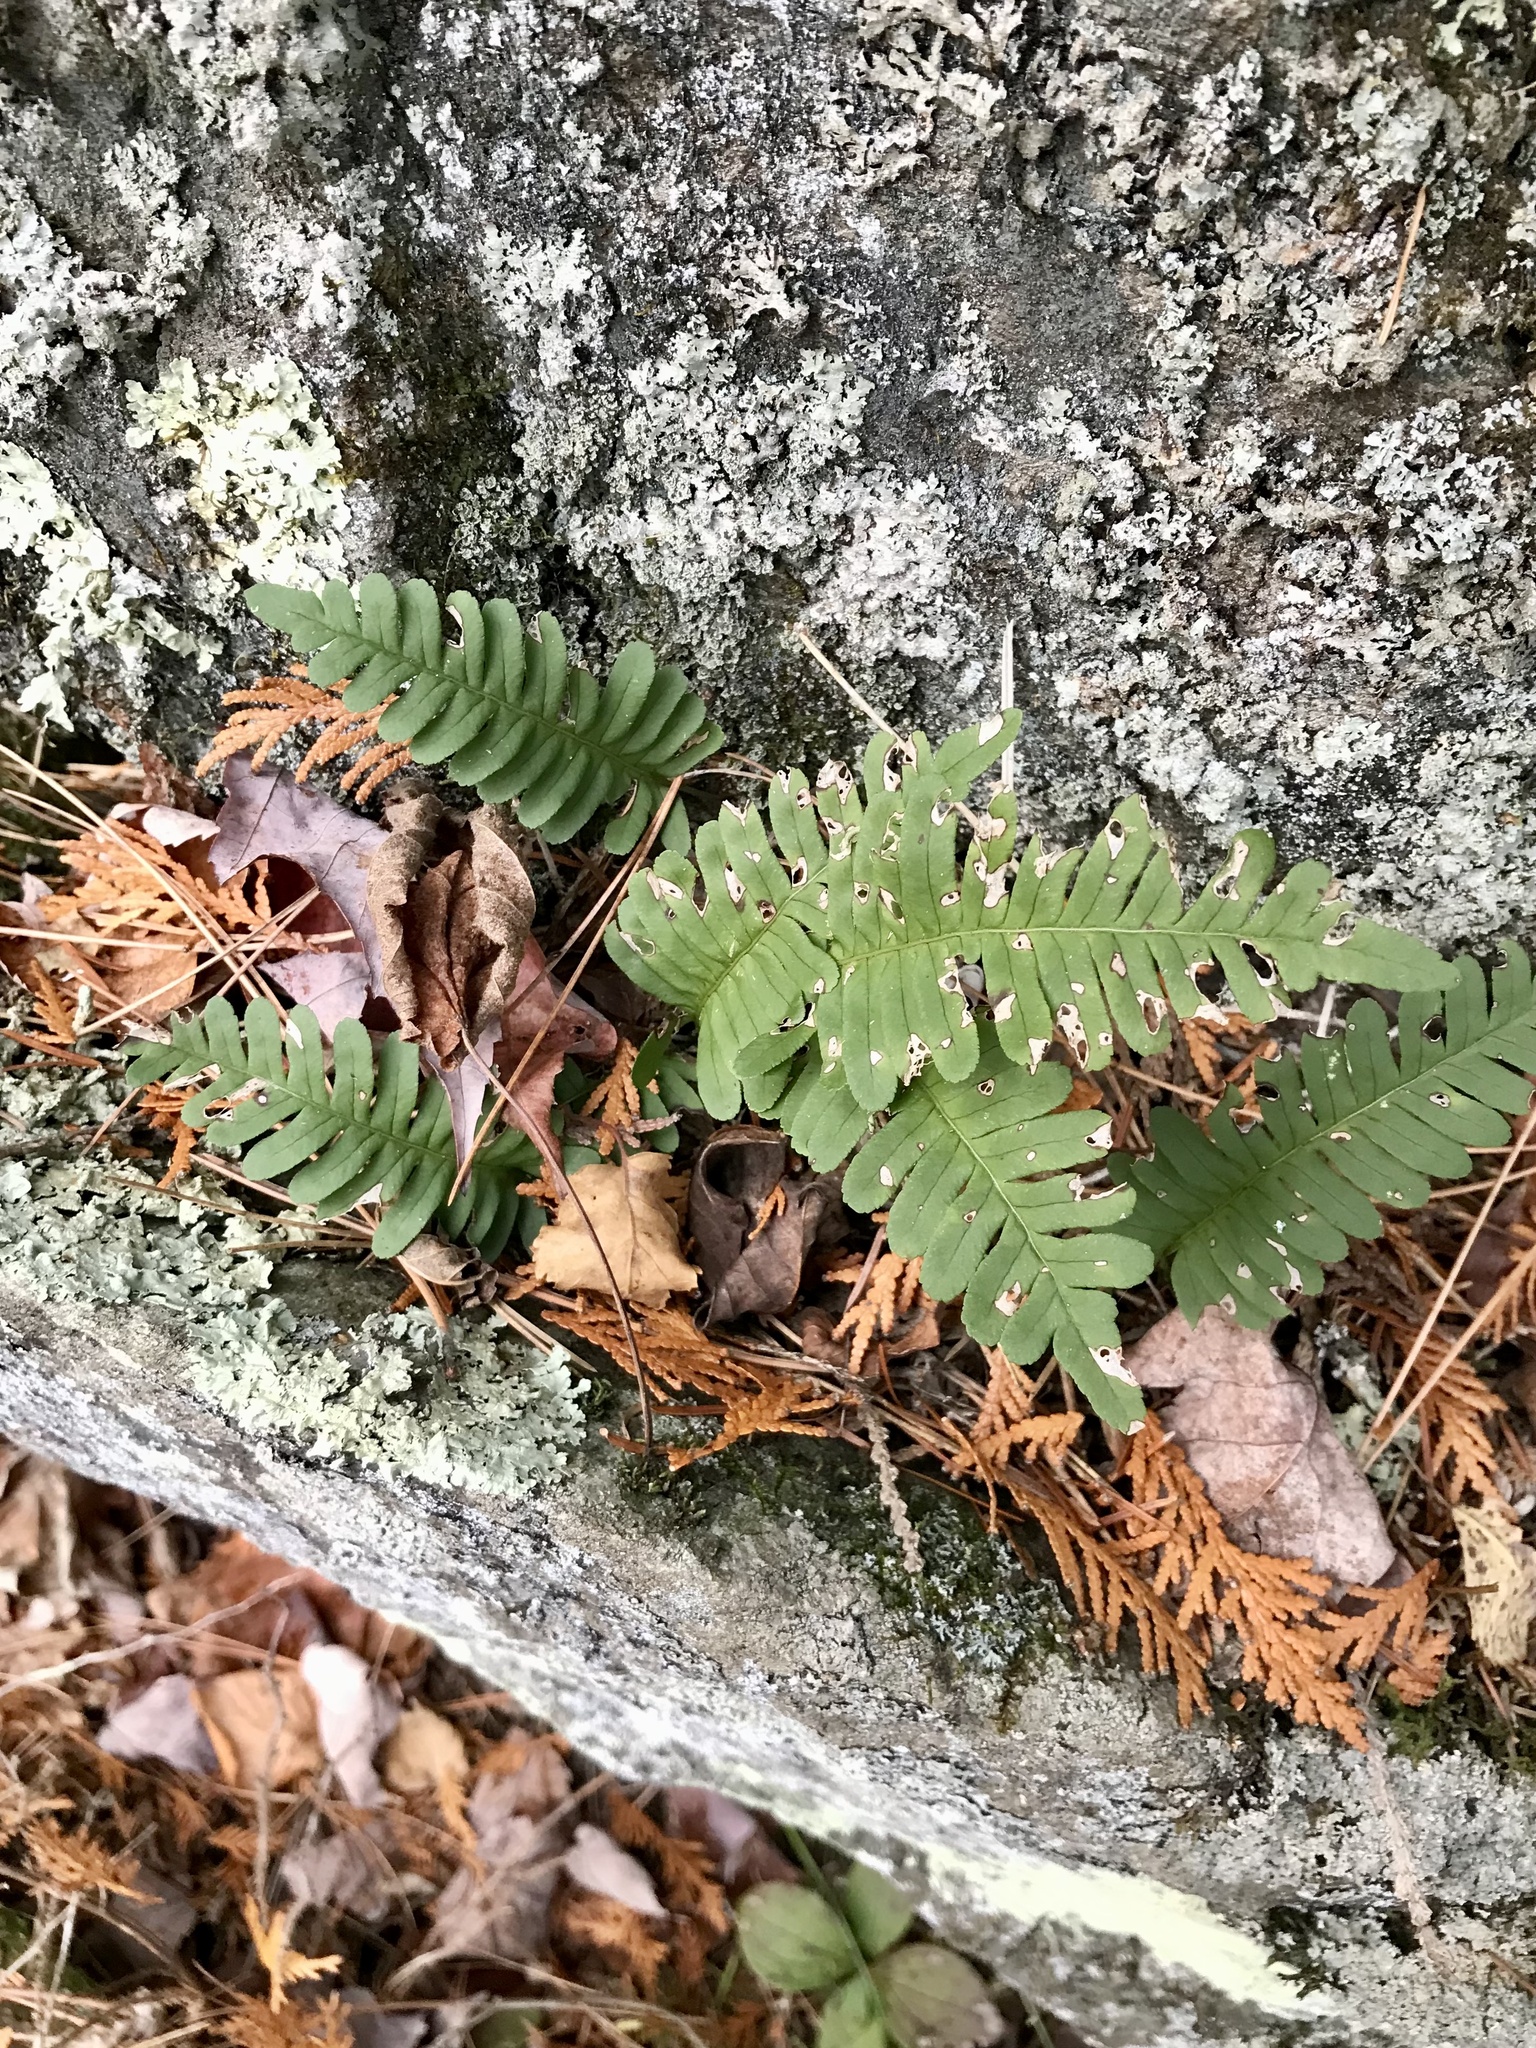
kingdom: Plantae
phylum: Tracheophyta
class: Polypodiopsida
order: Polypodiales
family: Polypodiaceae
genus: Polypodium
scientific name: Polypodium virginianum
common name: American wall fern
